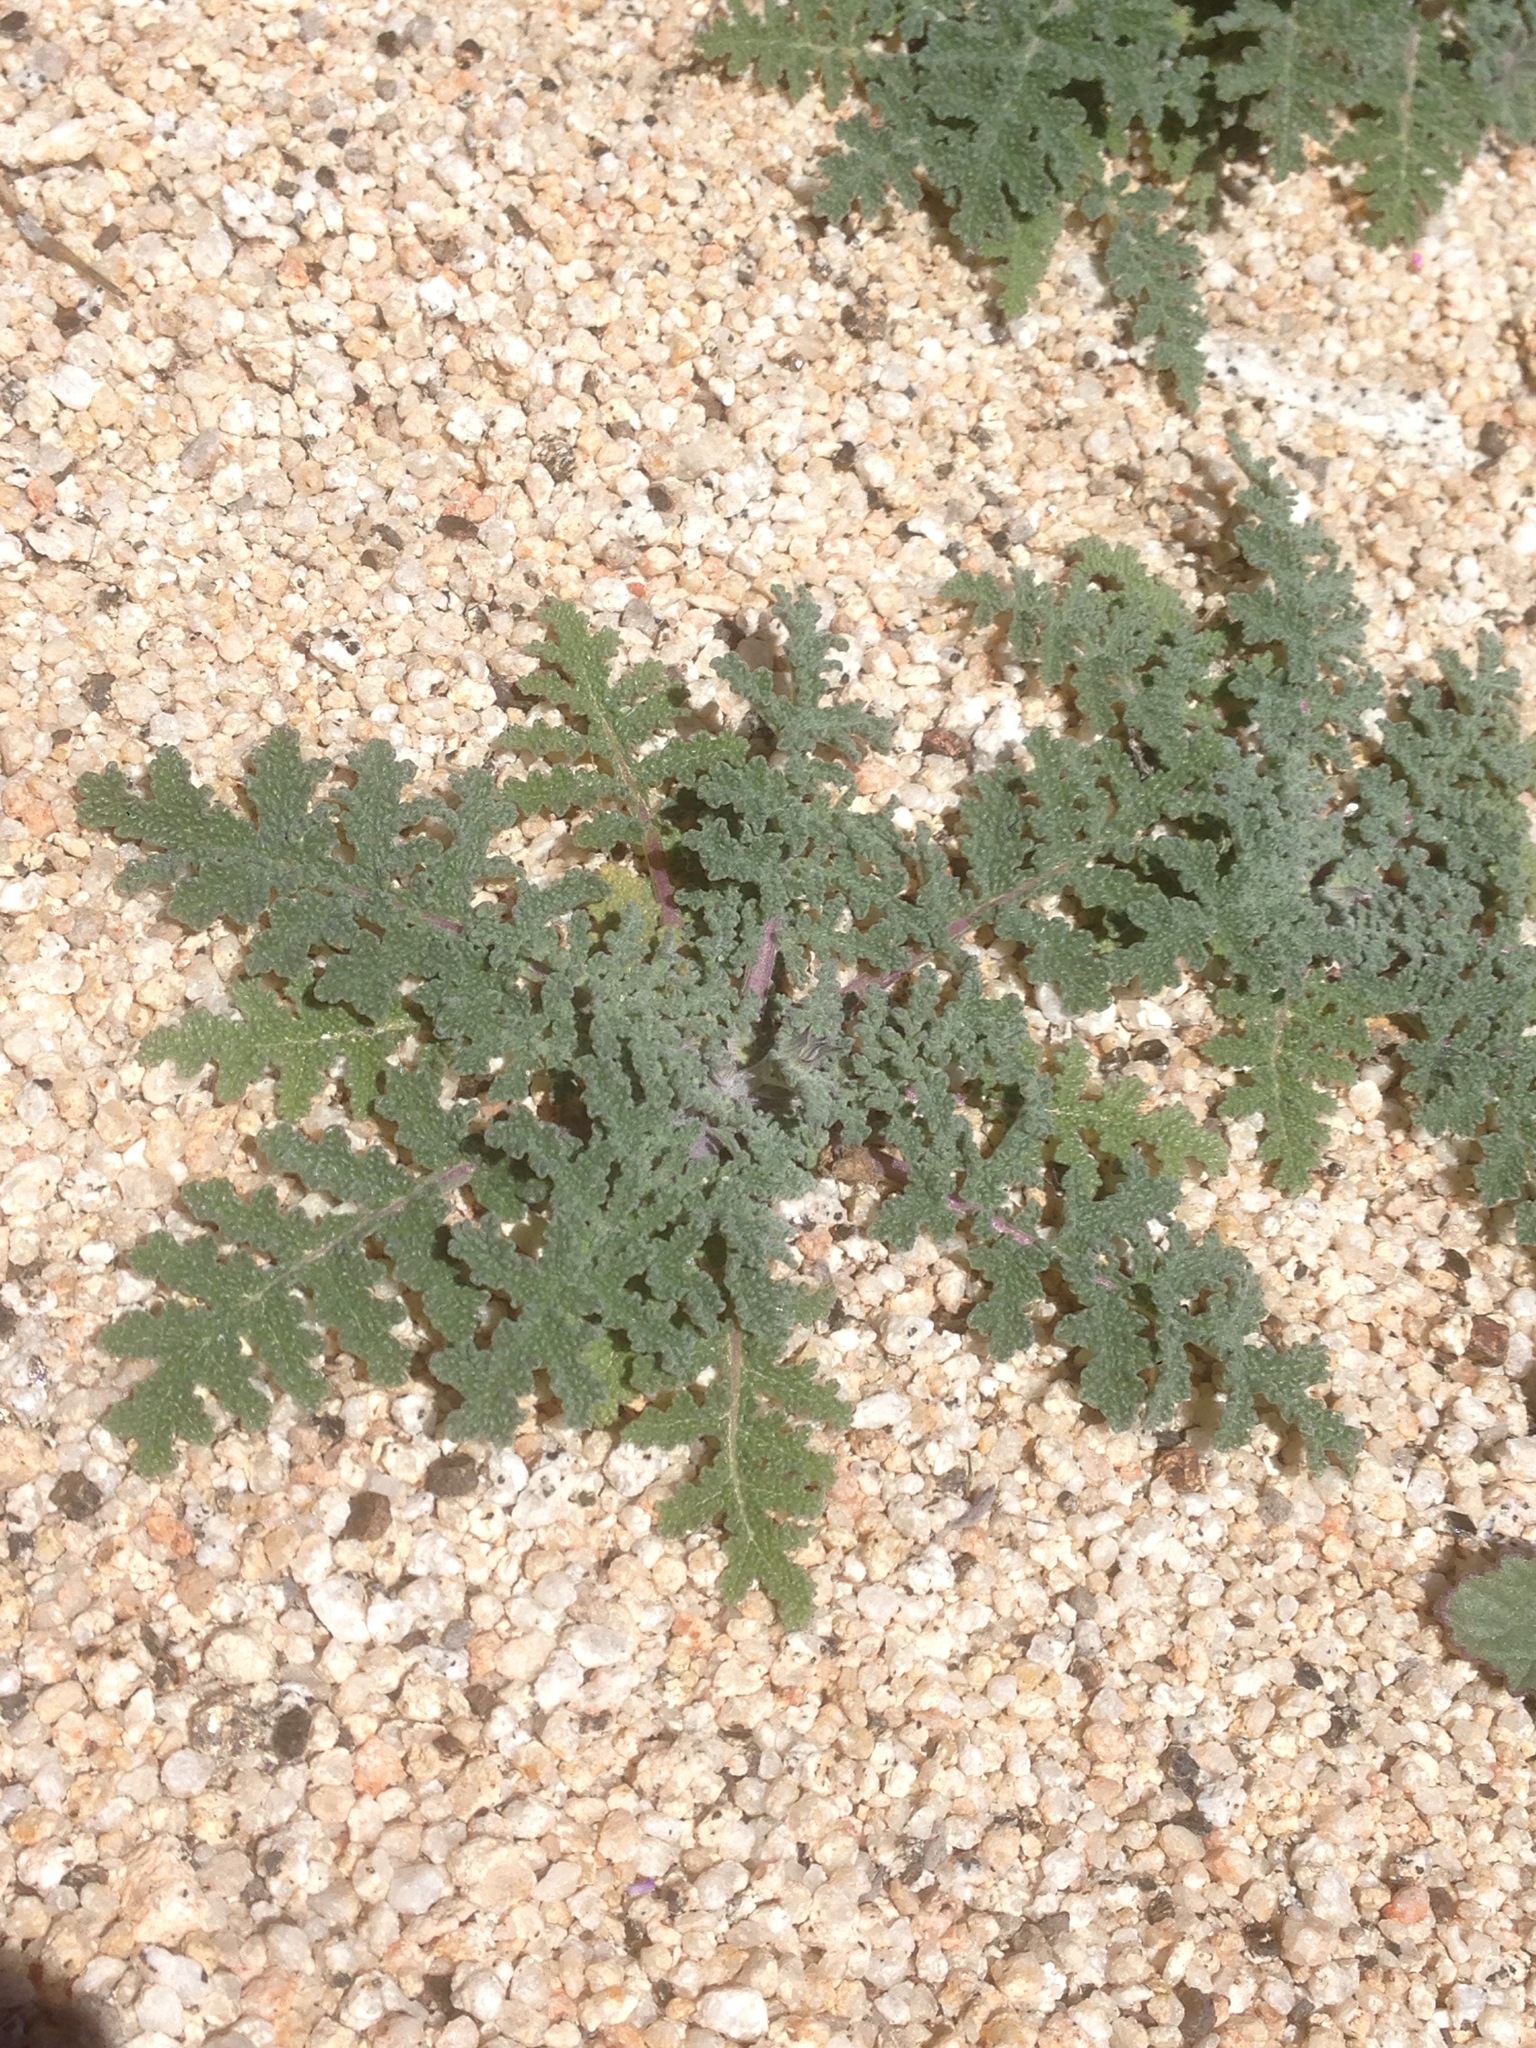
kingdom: Plantae
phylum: Tracheophyta
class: Magnoliopsida
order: Lamiales
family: Lamiaceae
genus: Salvia
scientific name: Salvia columbariae
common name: Chia
